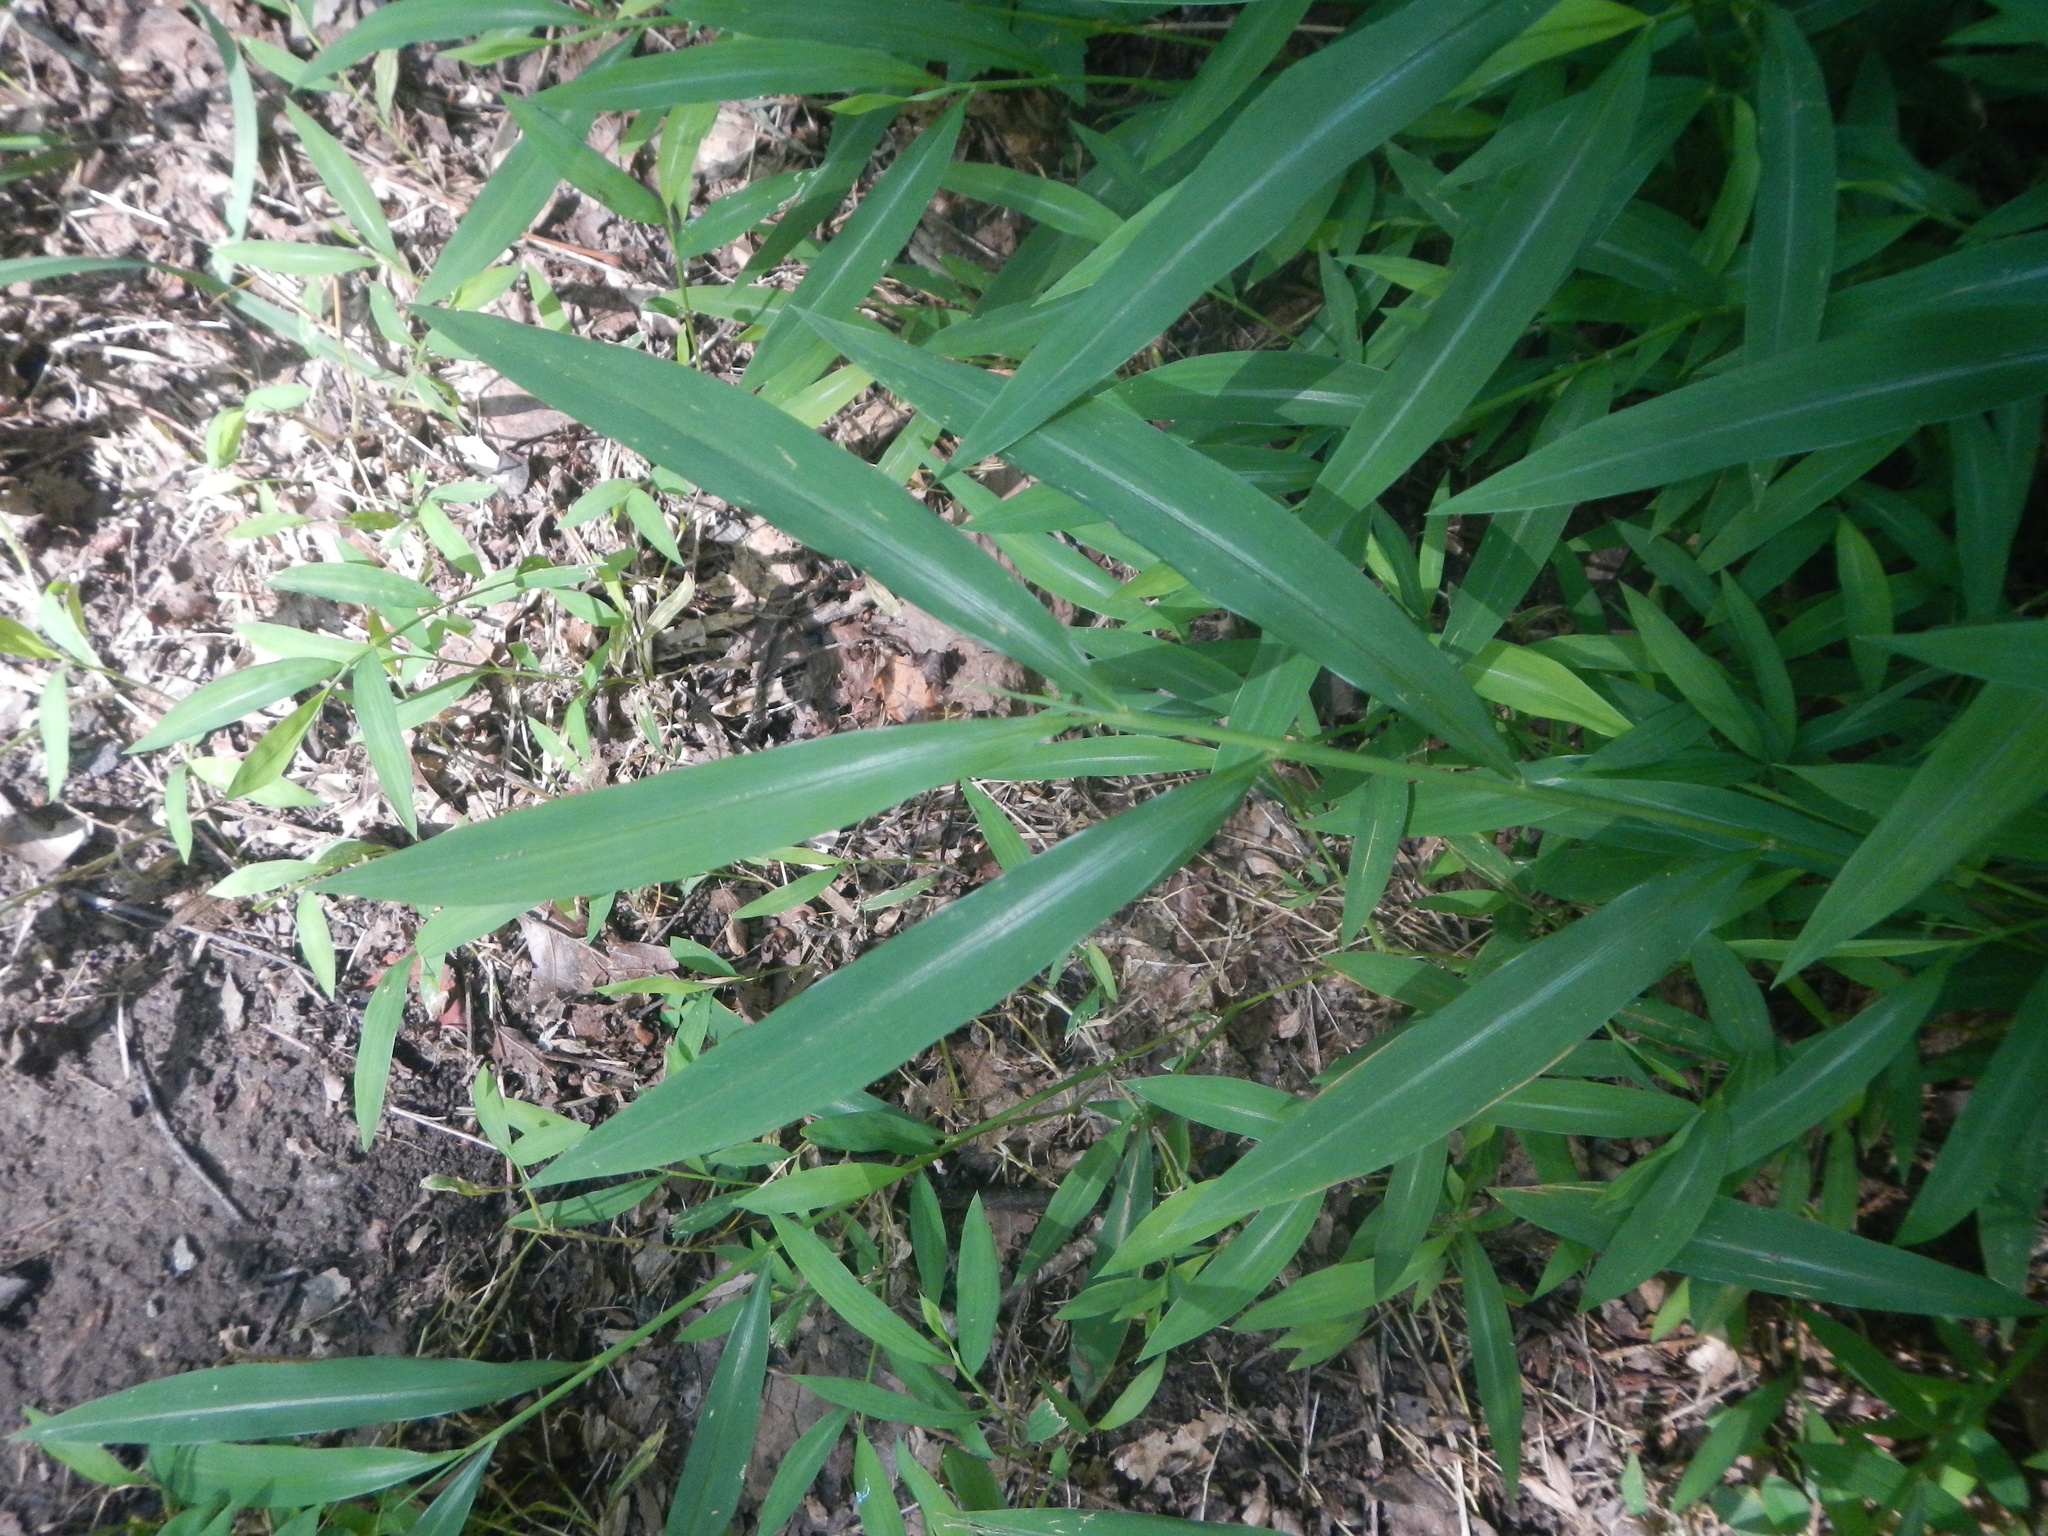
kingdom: Plantae
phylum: Tracheophyta
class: Liliopsida
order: Poales
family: Poaceae
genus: Microstegium
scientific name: Microstegium vimineum
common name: Japanese stiltgrass
